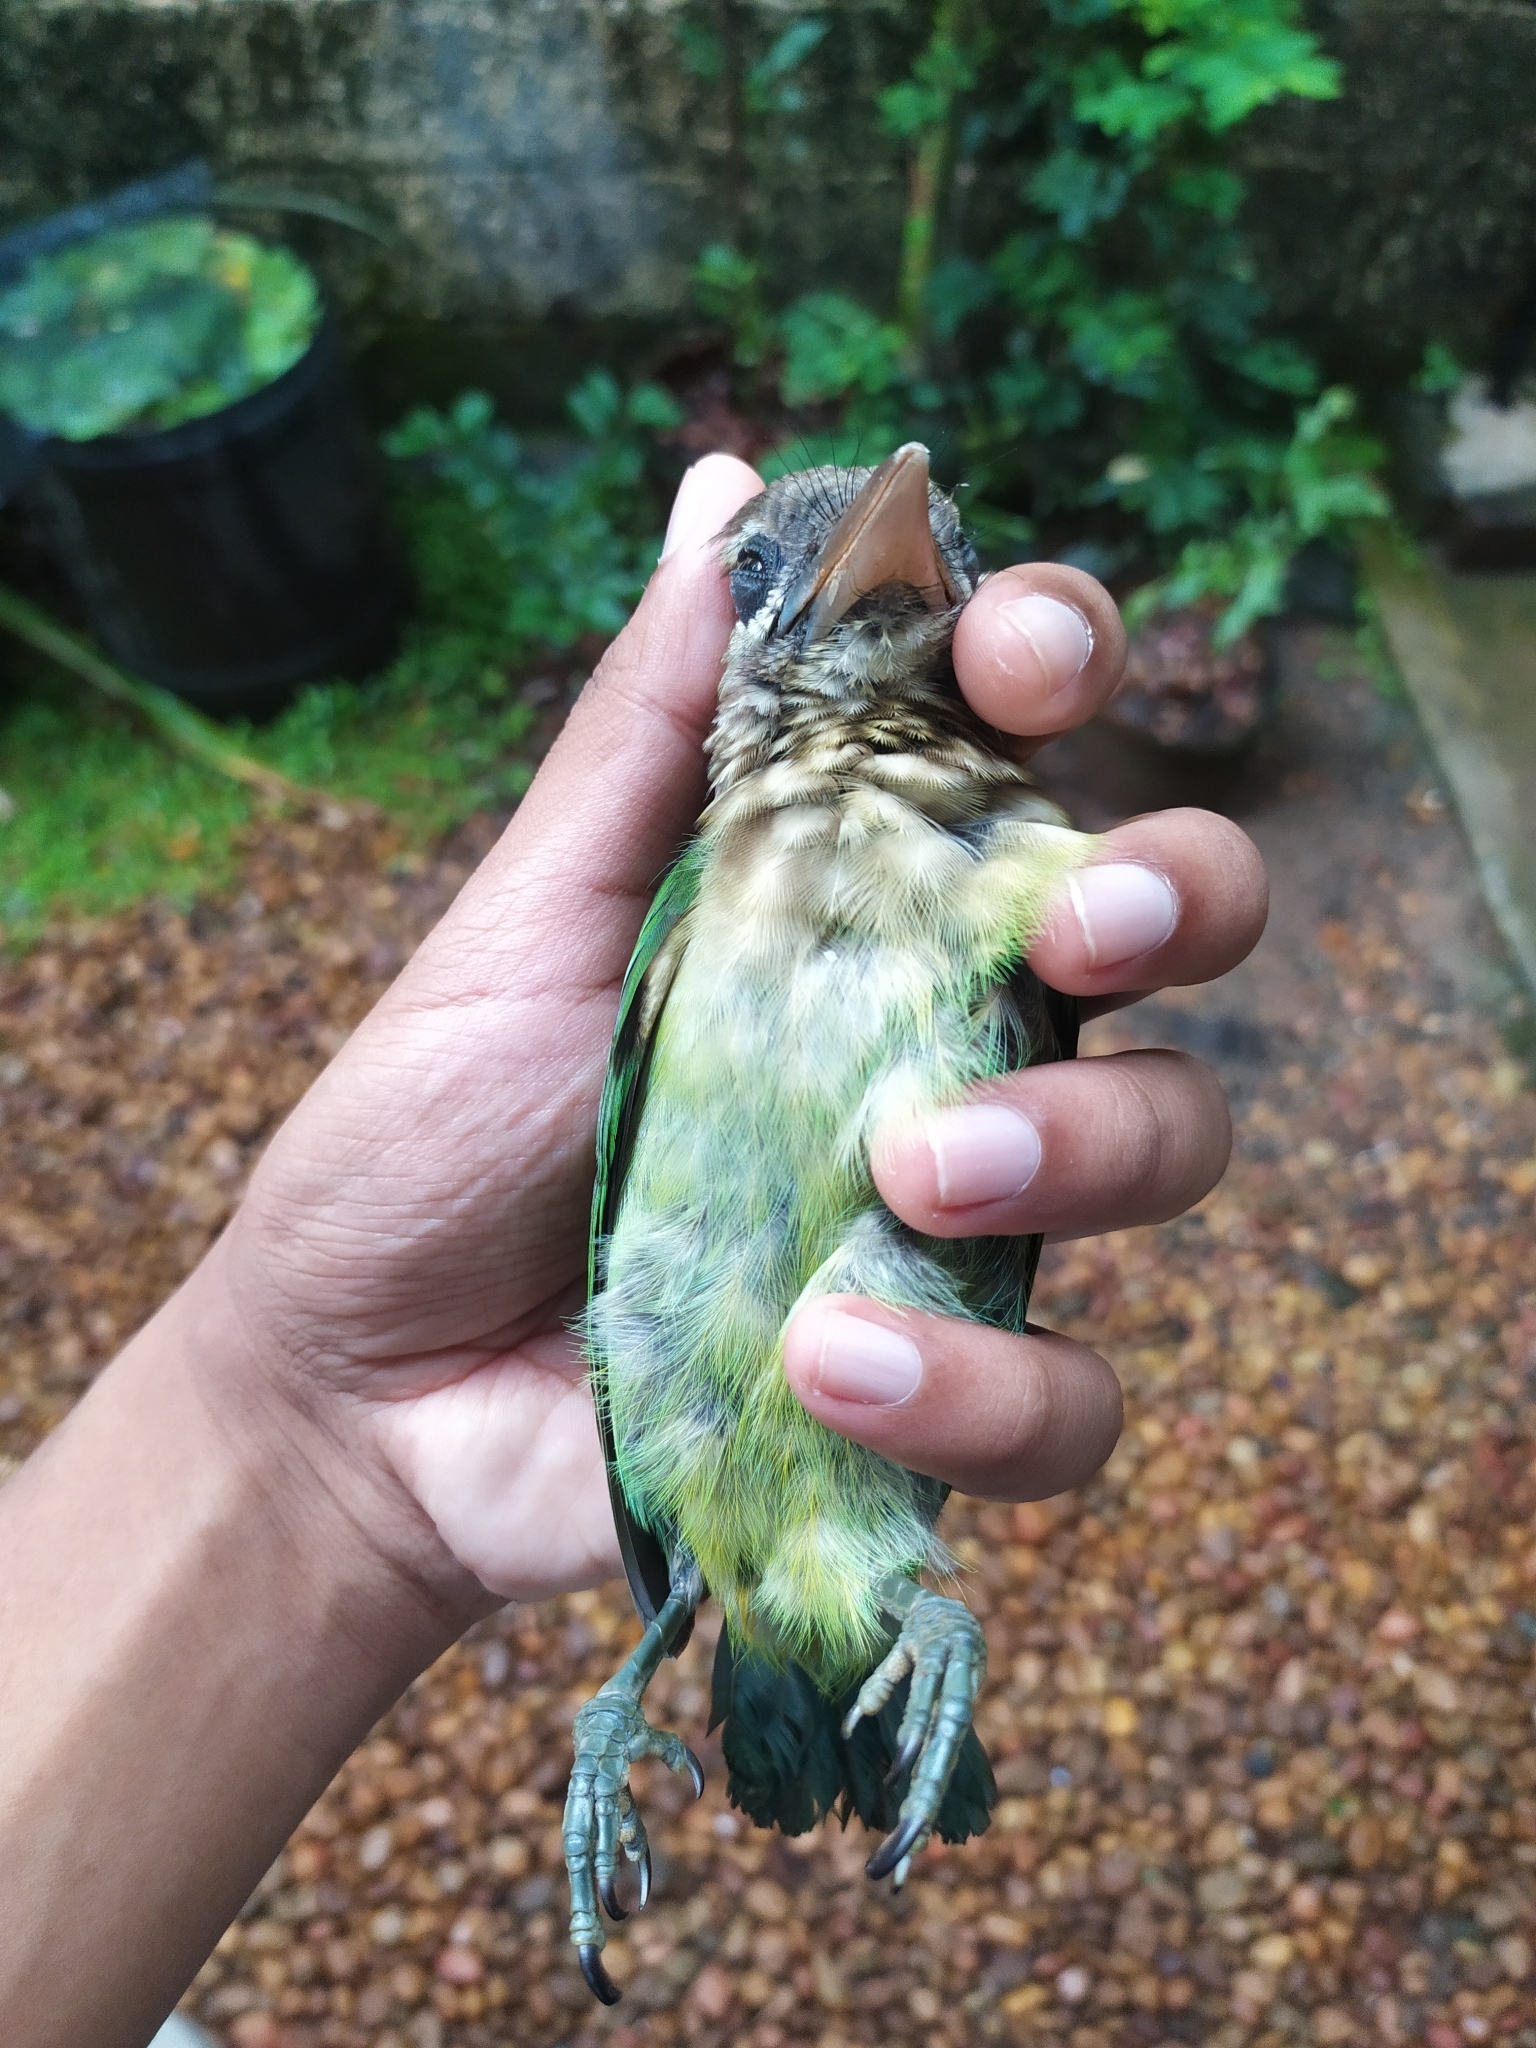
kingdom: Animalia
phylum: Chordata
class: Aves
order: Piciformes
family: Megalaimidae
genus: Psilopogon
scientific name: Psilopogon viridis
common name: White-cheeked barbet
